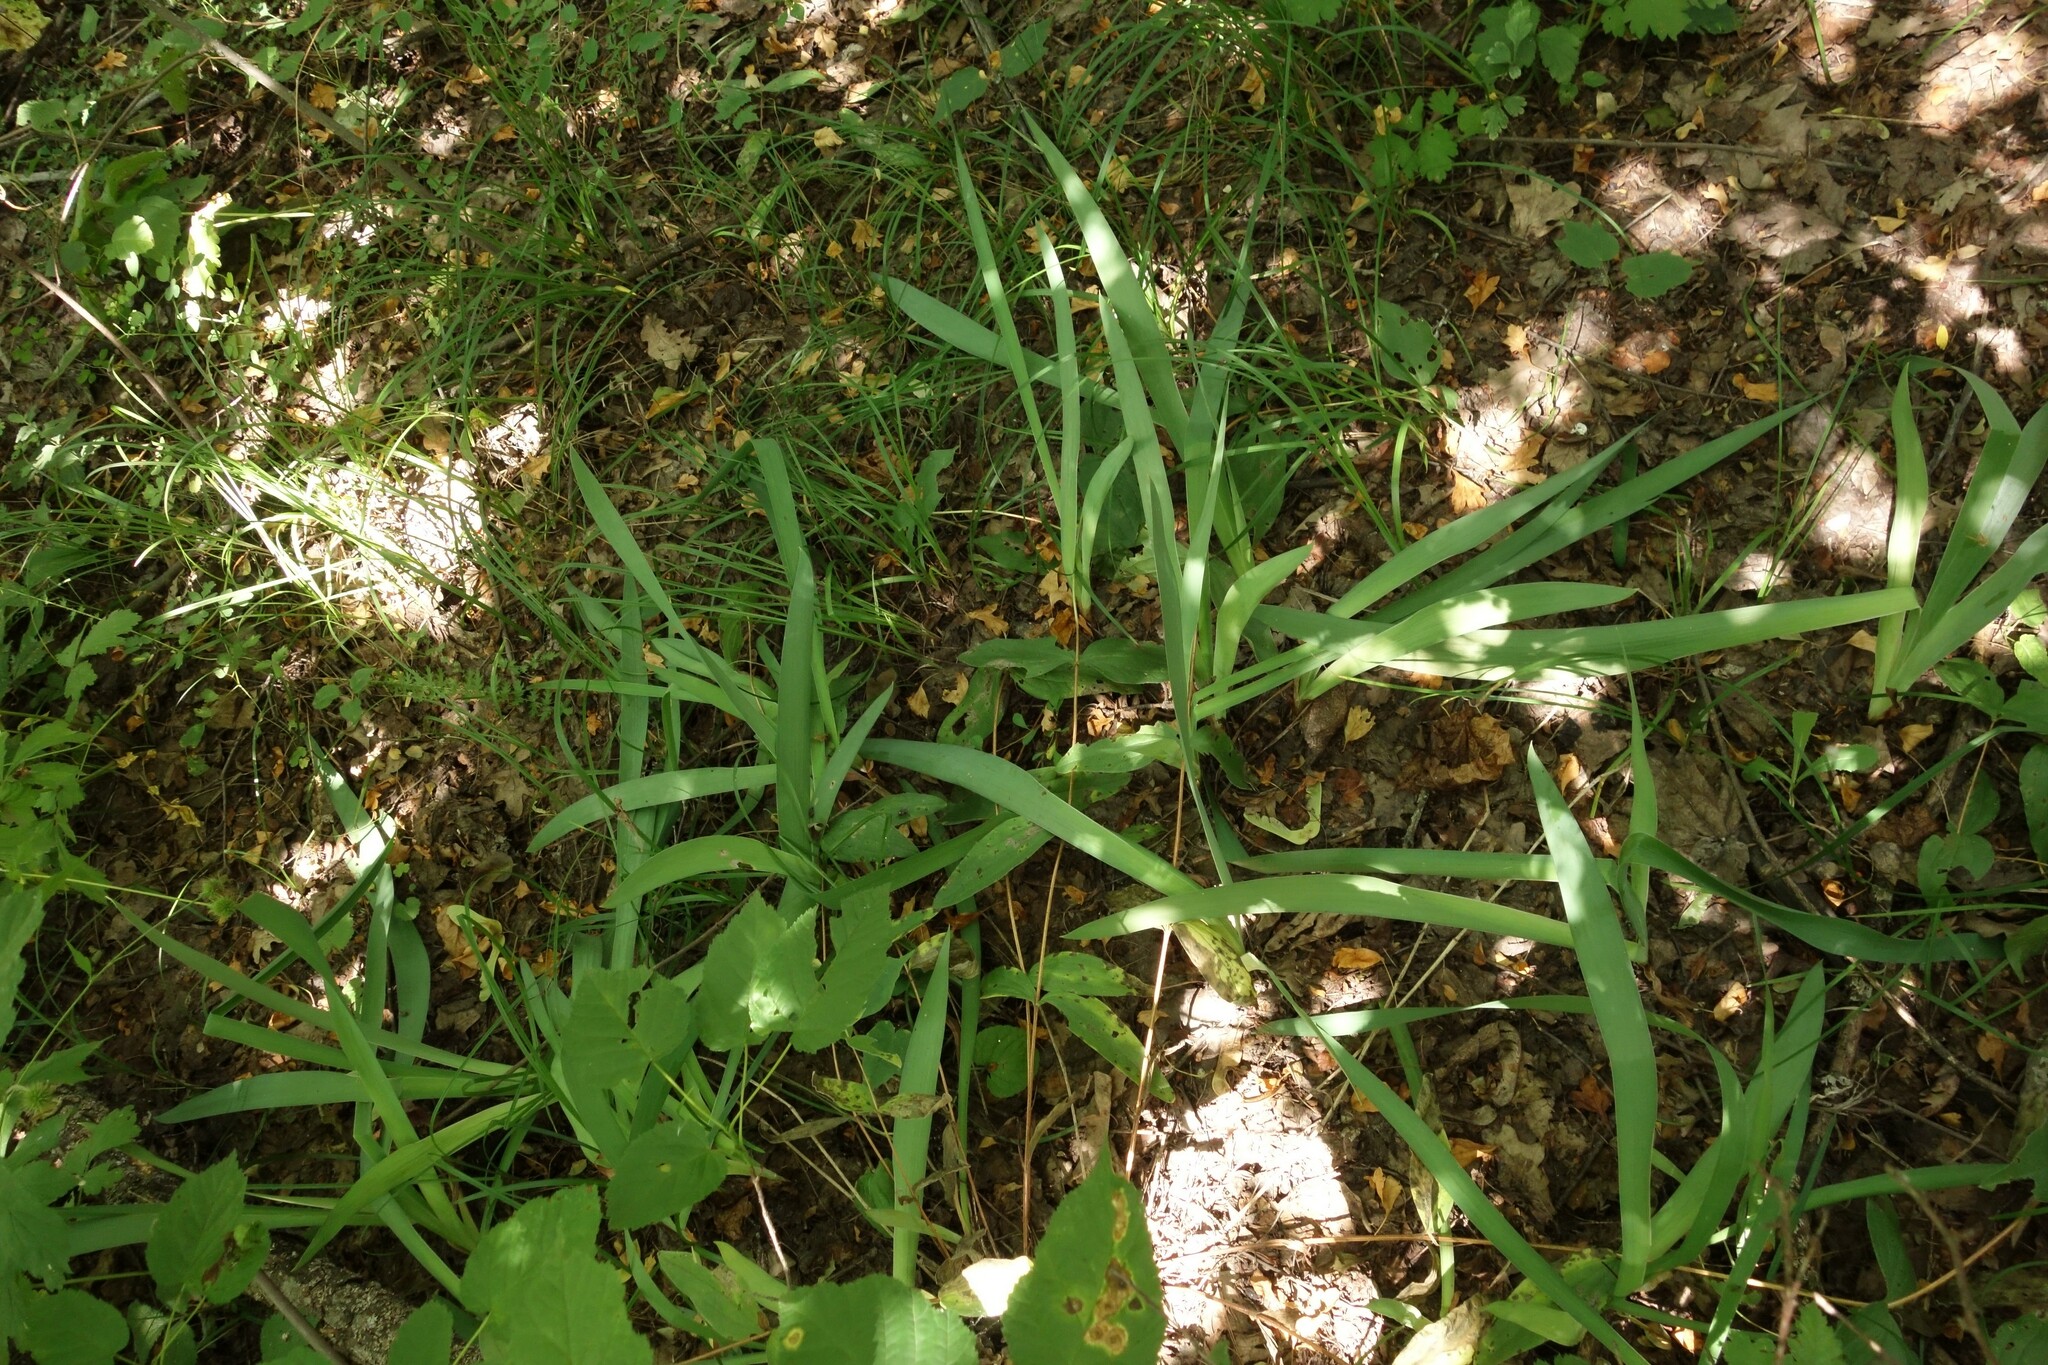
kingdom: Plantae
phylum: Tracheophyta
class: Liliopsida
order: Asparagales
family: Iridaceae
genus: Iris
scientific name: Iris aphylla
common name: Stool iris
